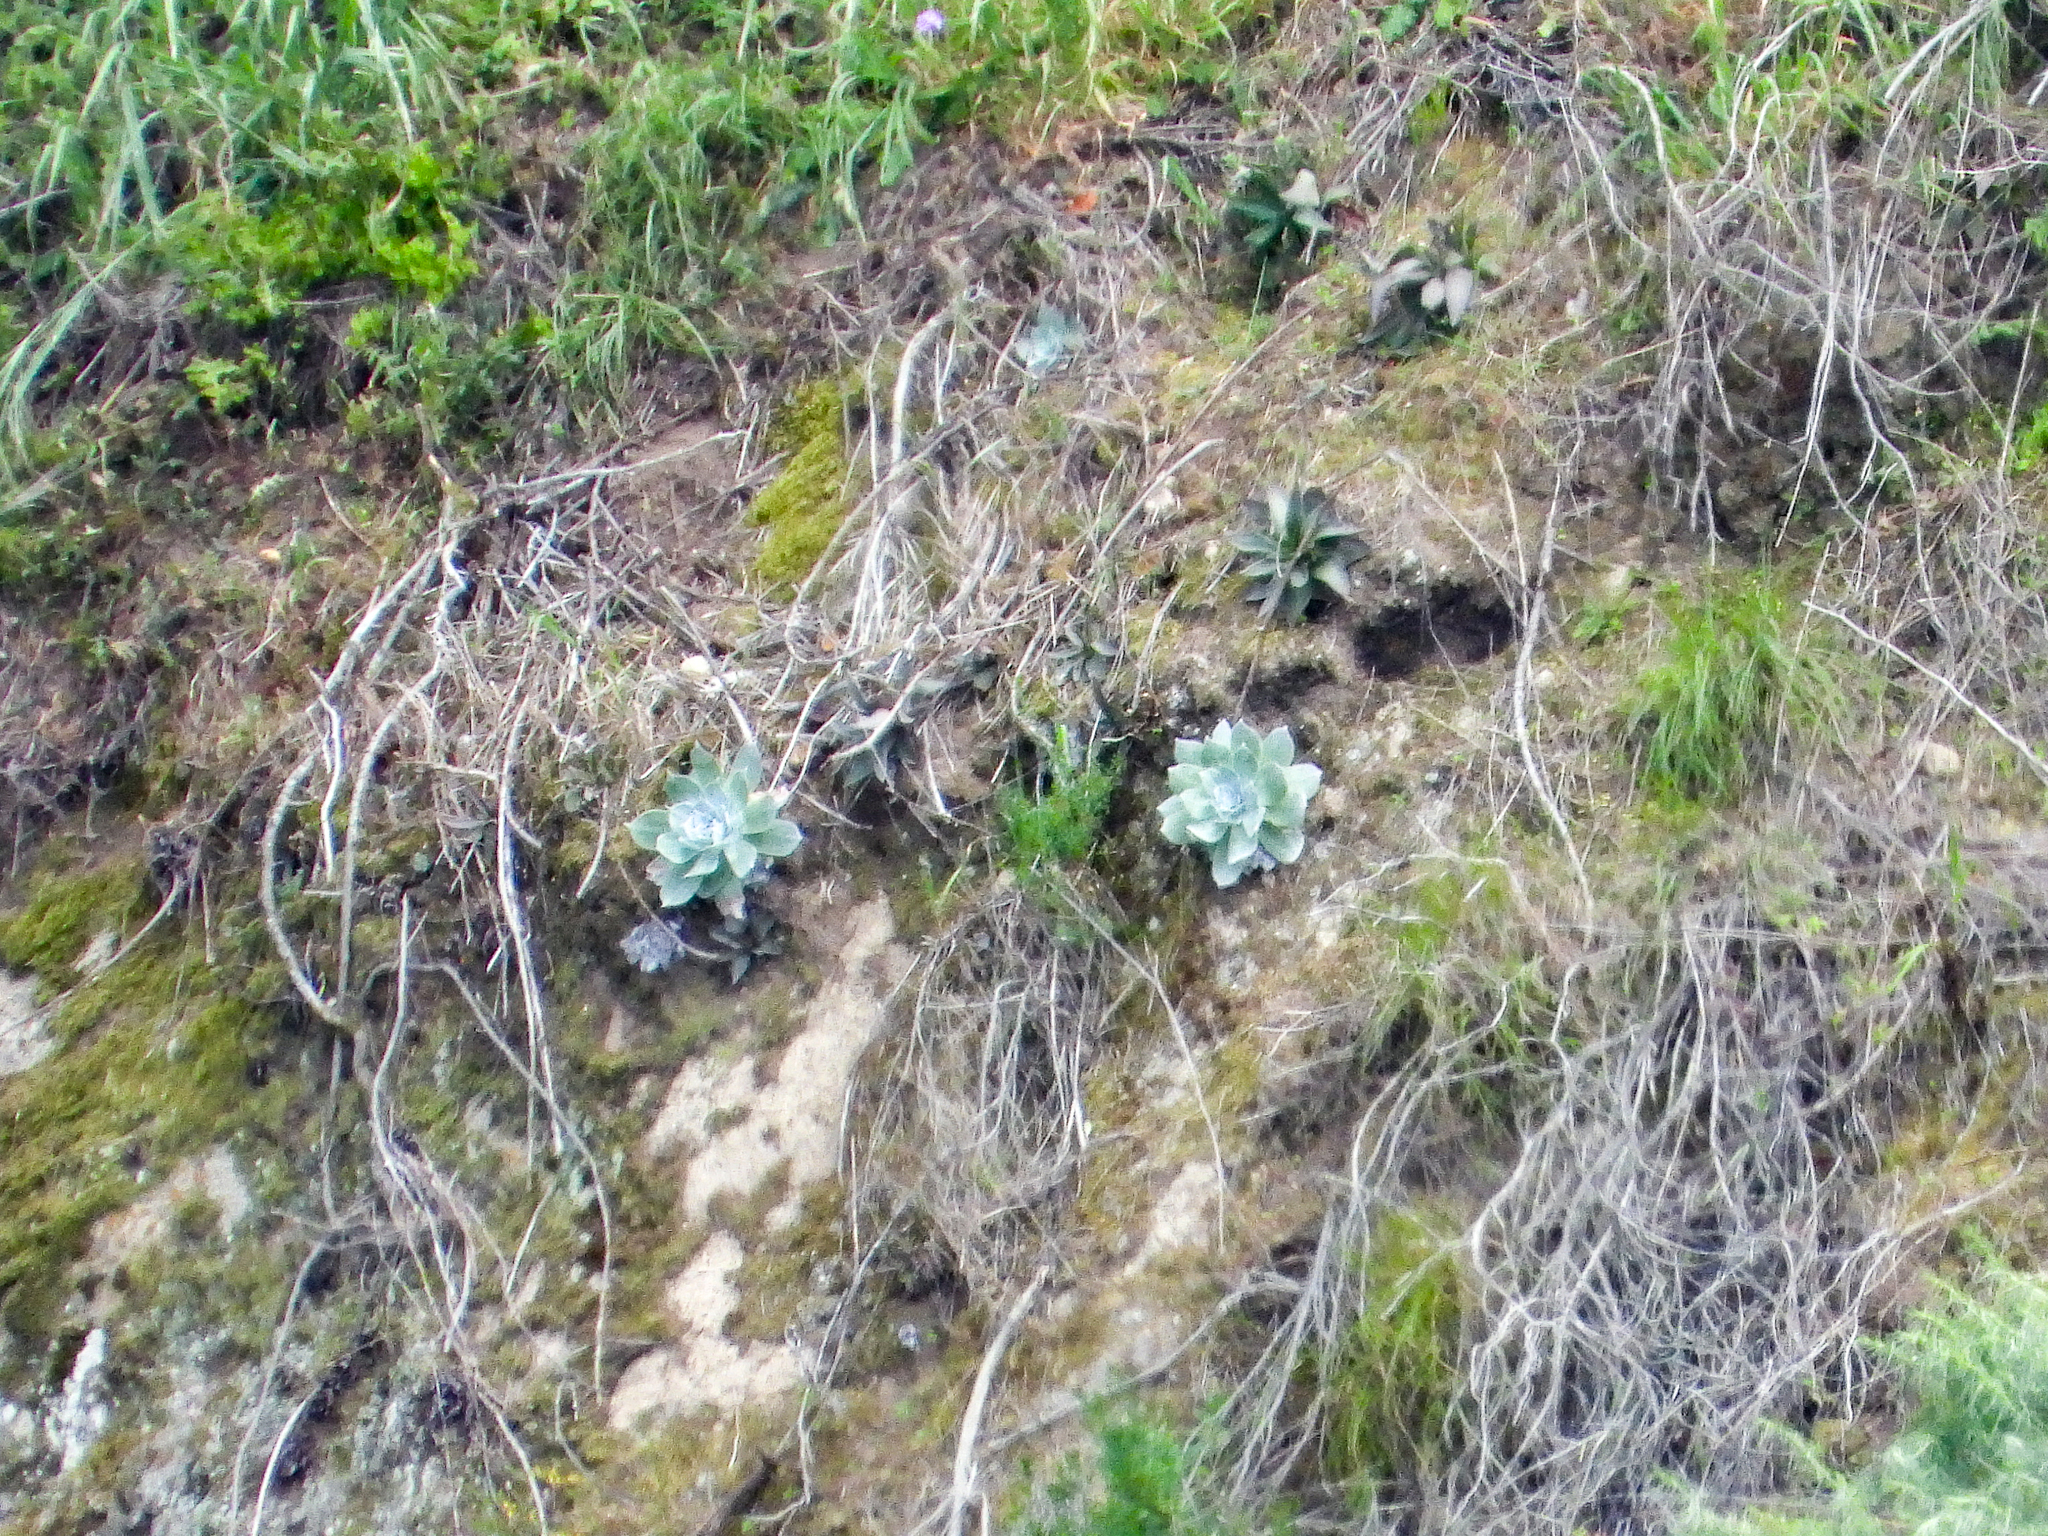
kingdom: Plantae
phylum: Tracheophyta
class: Magnoliopsida
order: Saxifragales
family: Crassulaceae
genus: Dudleya
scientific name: Dudleya pulverulenta
